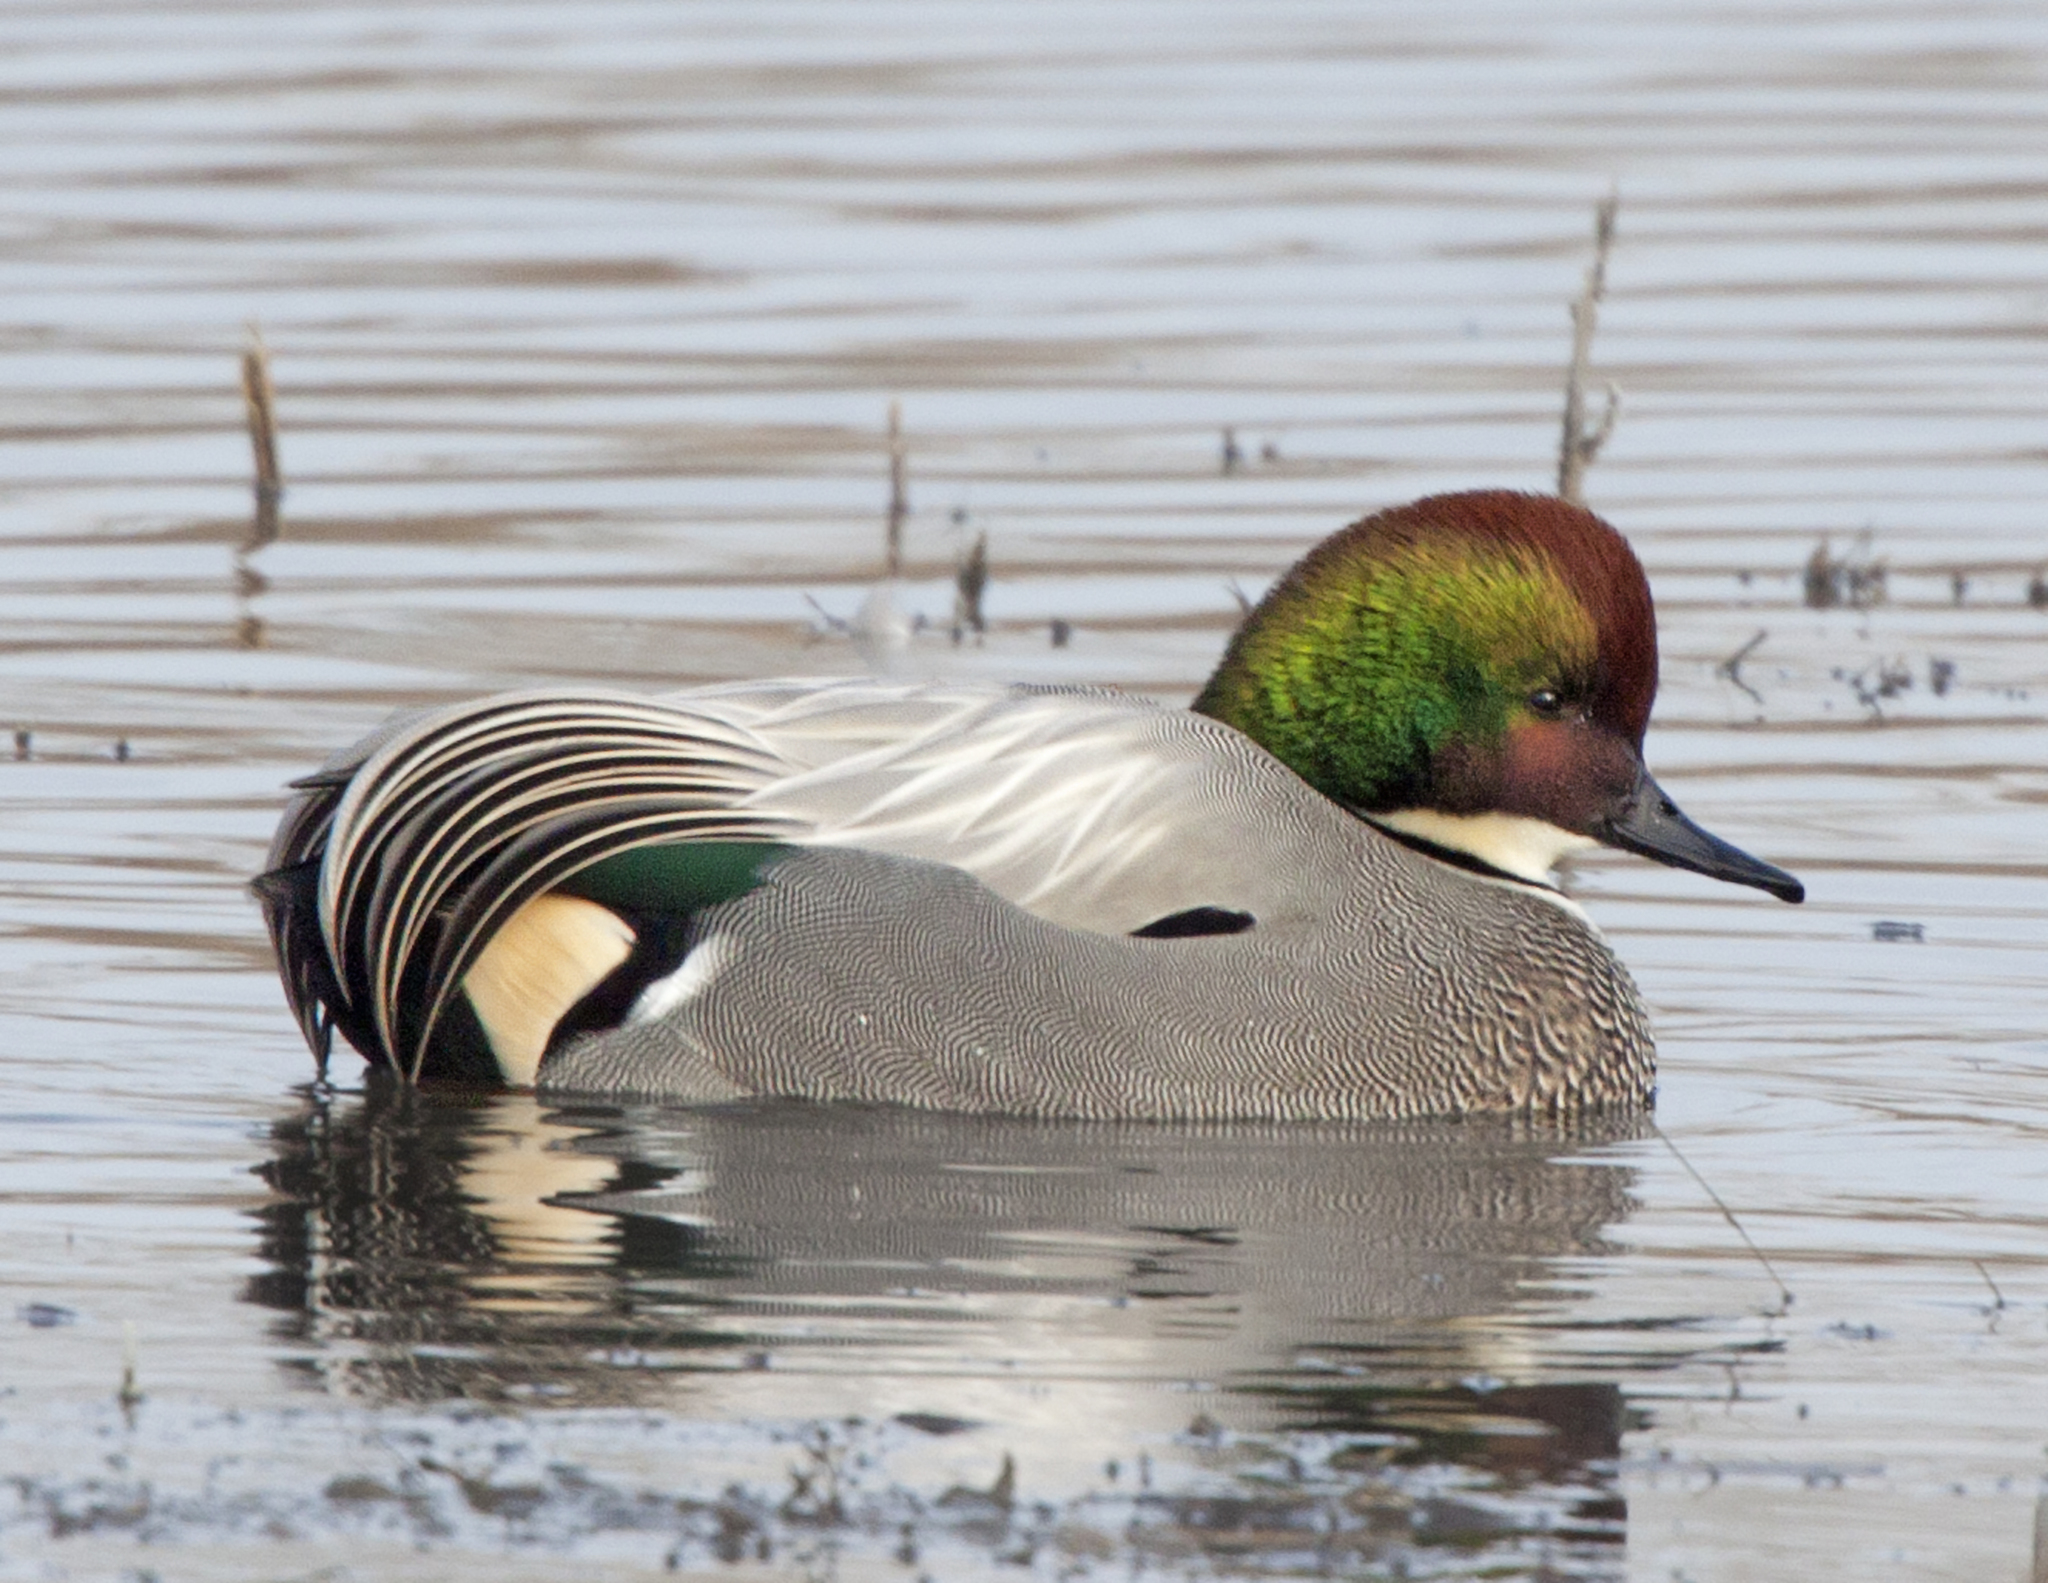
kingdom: Animalia
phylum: Chordata
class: Aves
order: Anseriformes
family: Anatidae
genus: Mareca
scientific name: Mareca falcata
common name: Falcated duck
